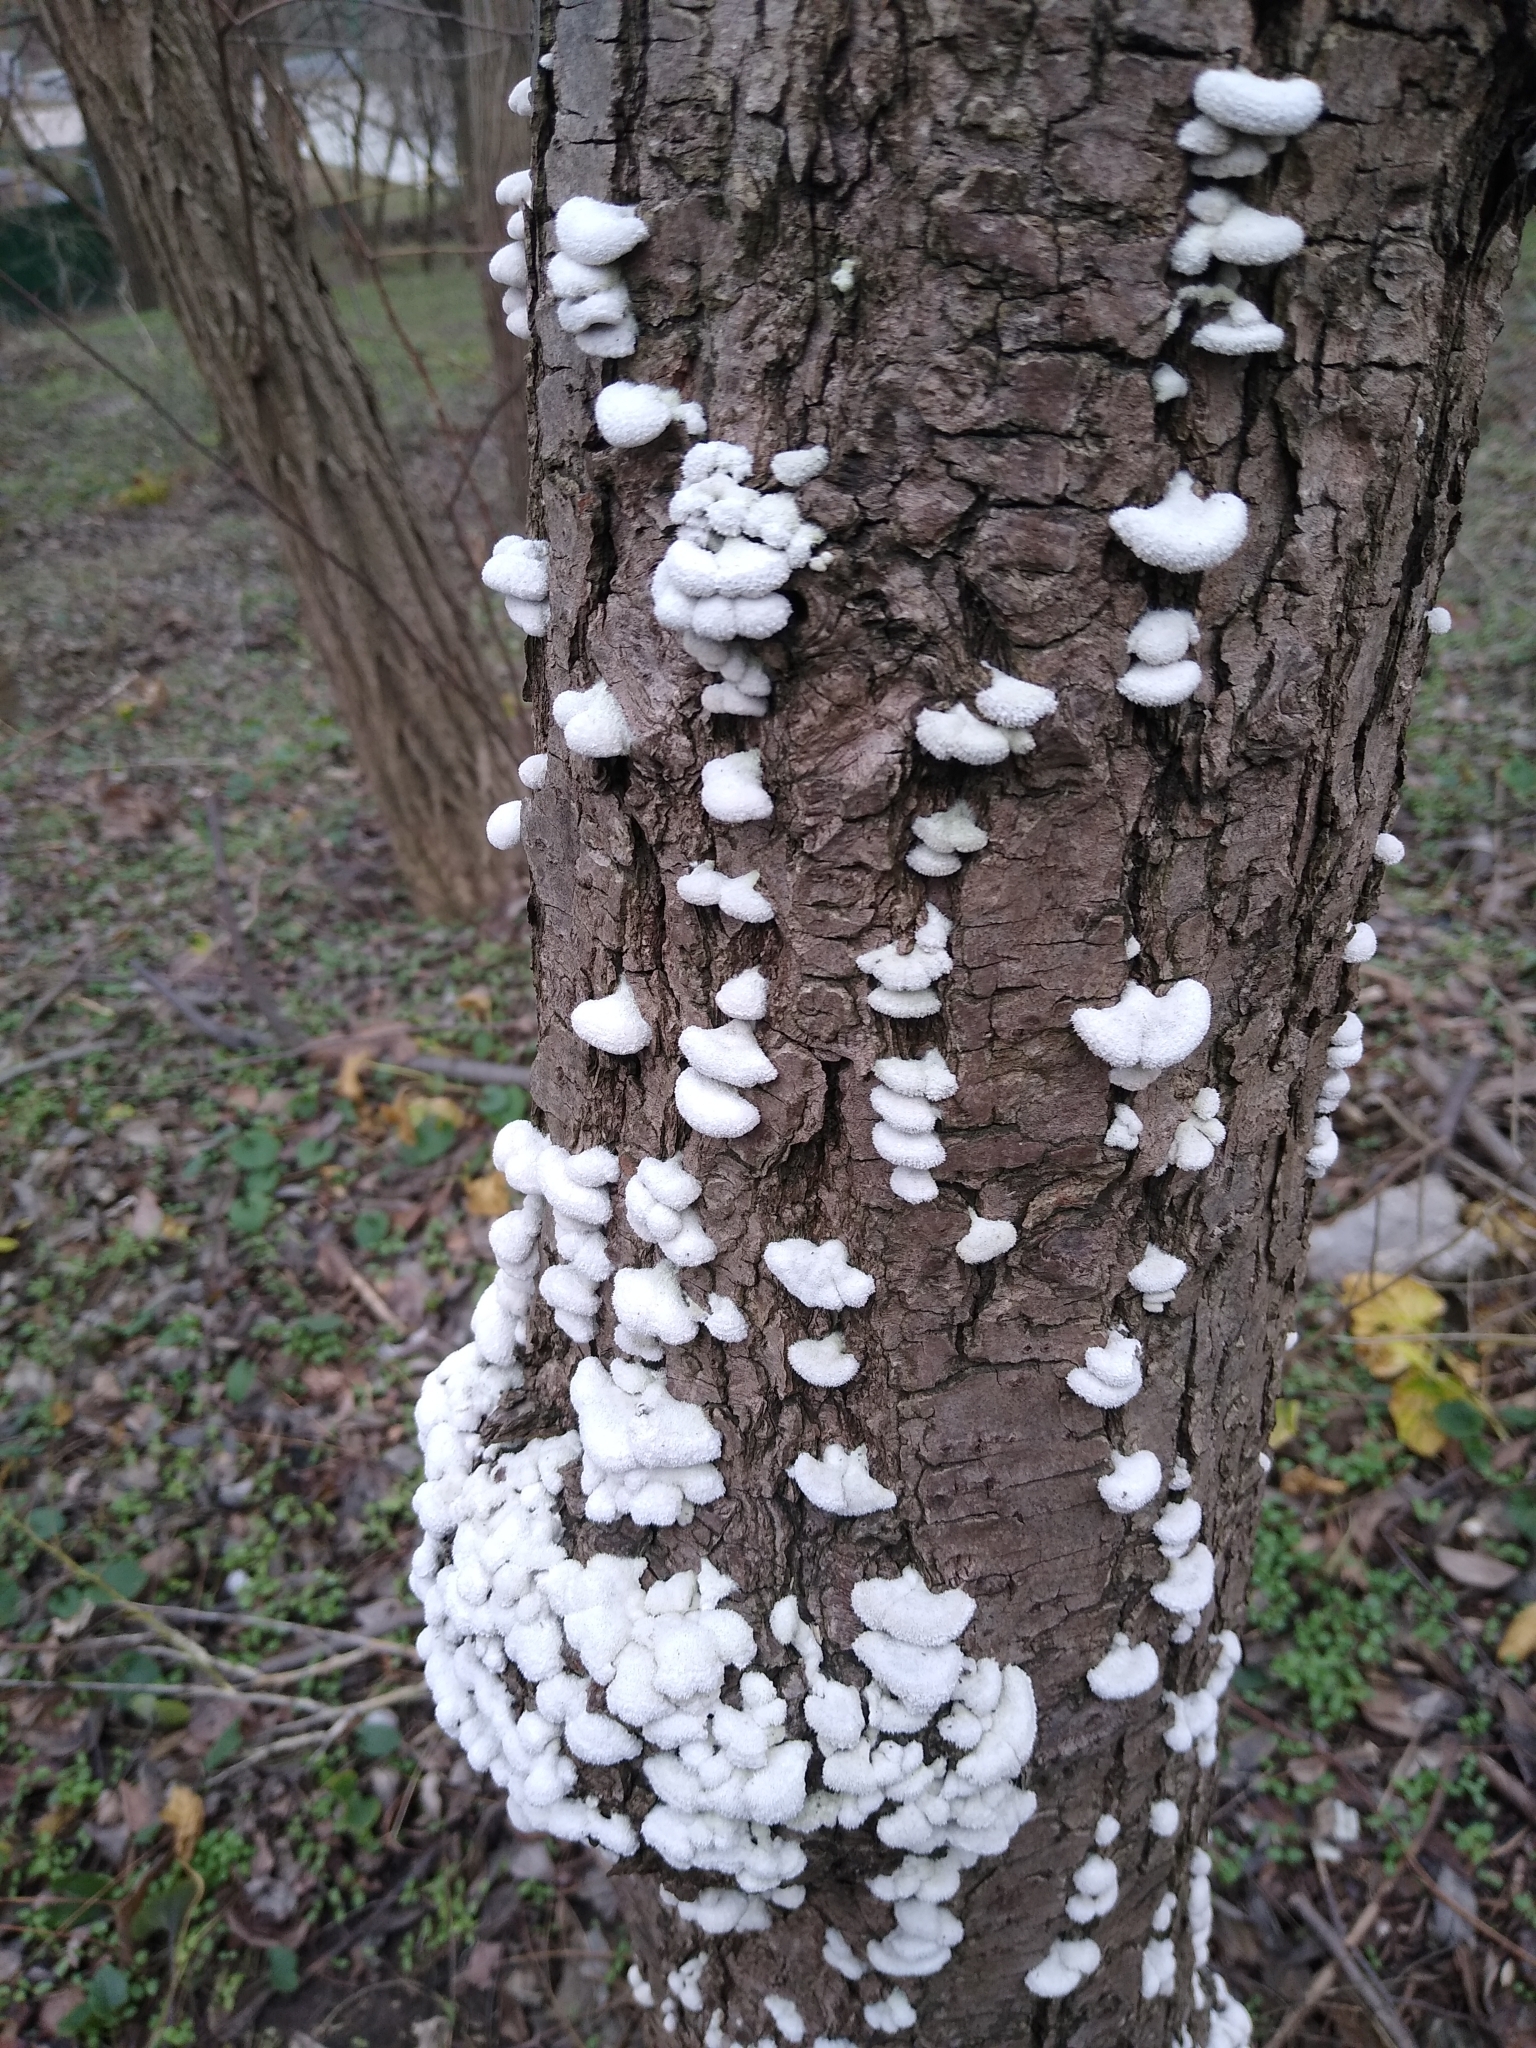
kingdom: Fungi
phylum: Basidiomycota
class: Agaricomycetes
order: Agaricales
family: Schizophyllaceae
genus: Schizophyllum
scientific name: Schizophyllum commune
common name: Common porecrust
